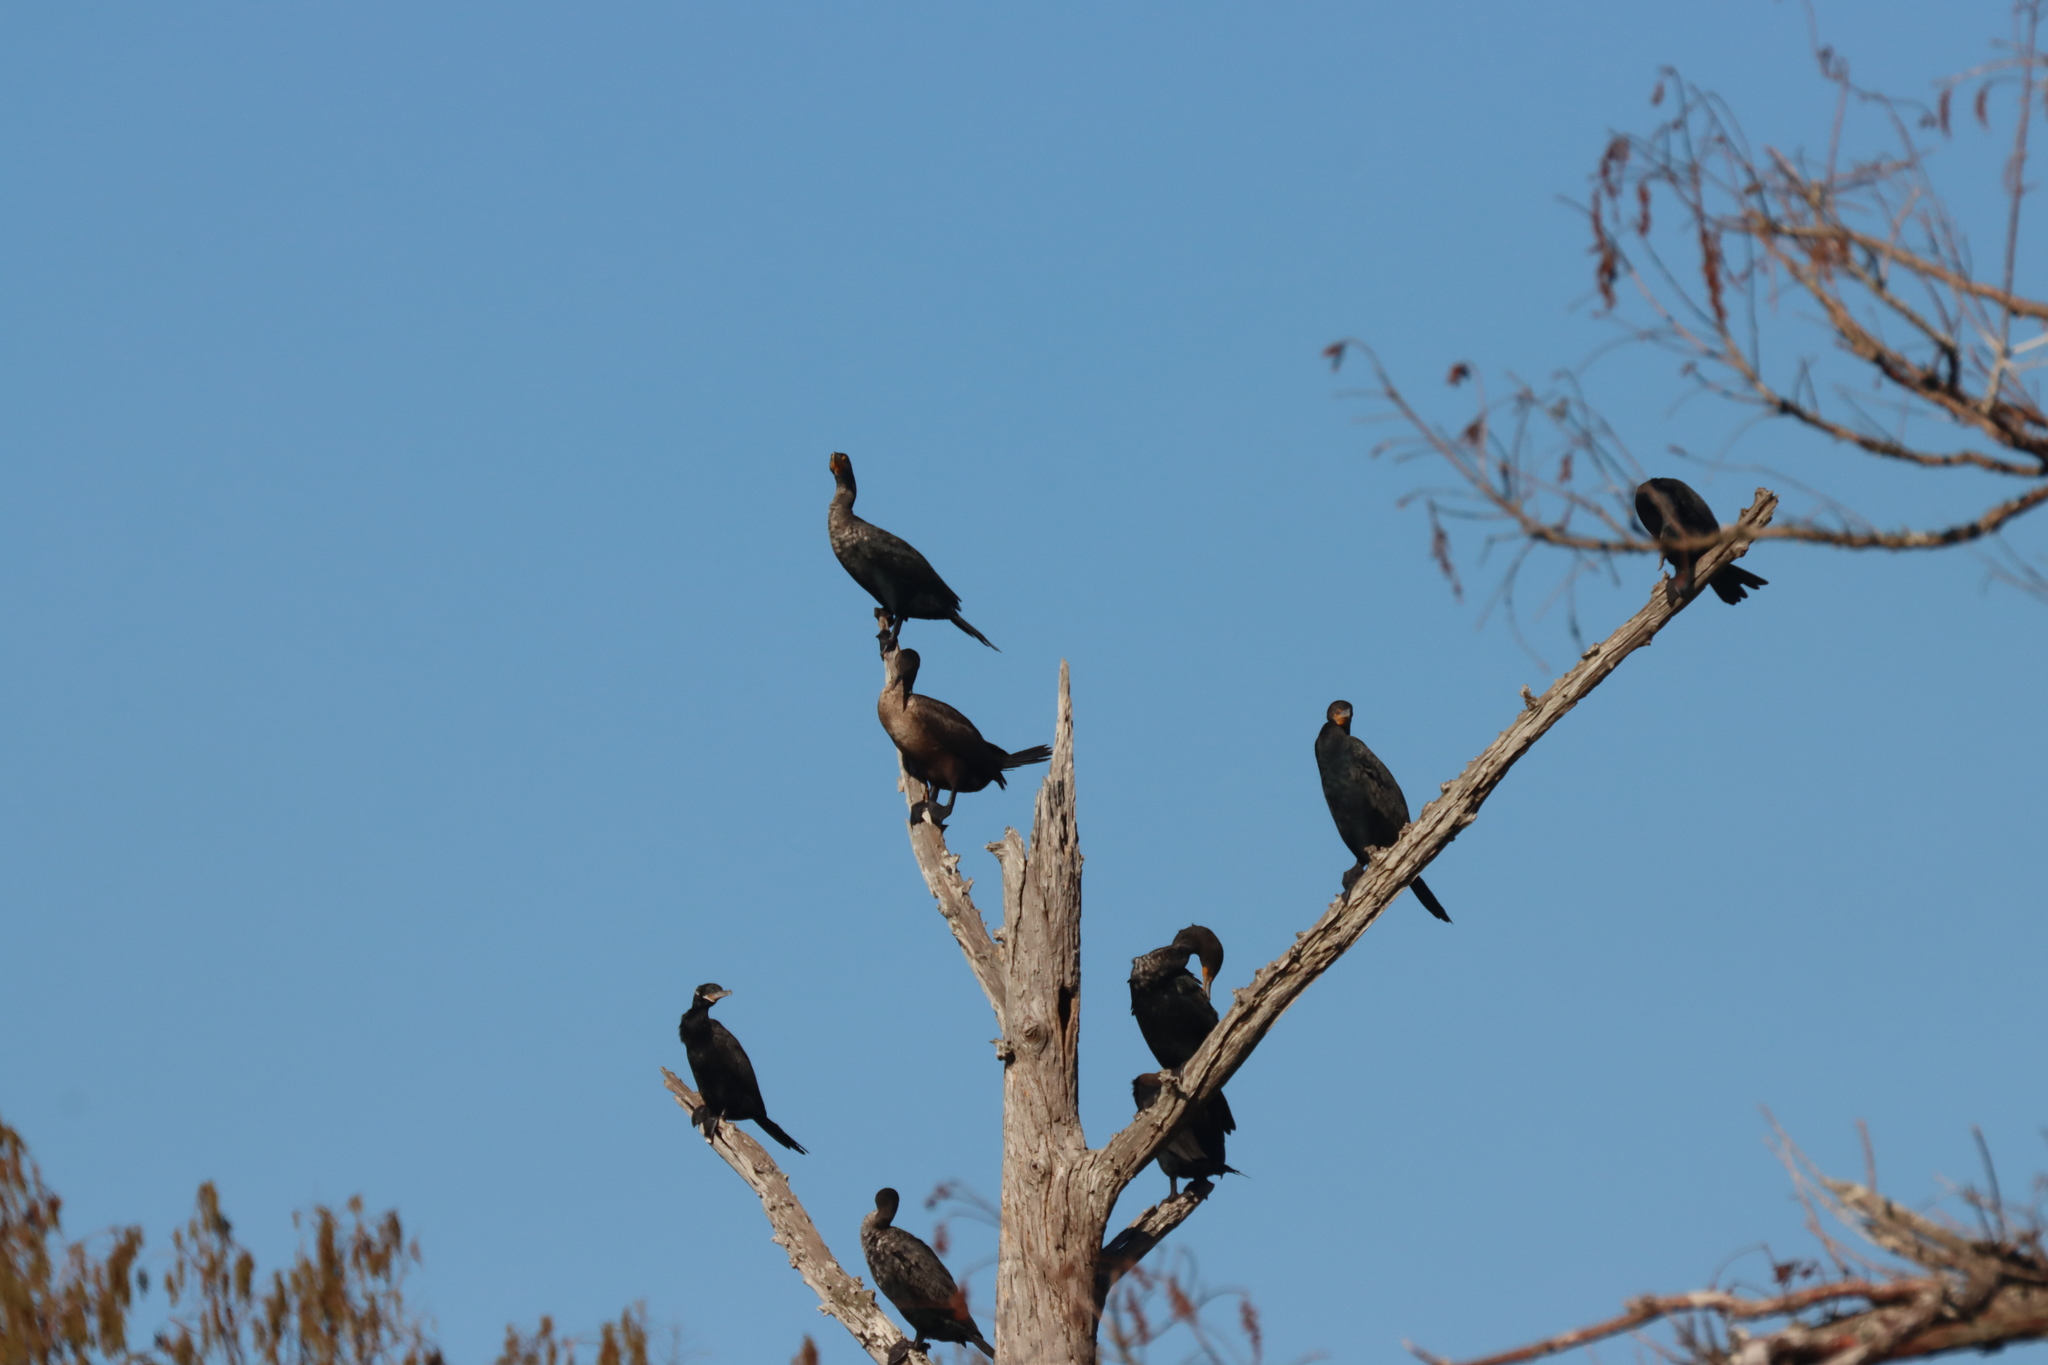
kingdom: Animalia
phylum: Chordata
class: Aves
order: Suliformes
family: Phalacrocoracidae
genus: Phalacrocorax
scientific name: Phalacrocorax auritus
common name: Double-crested cormorant
